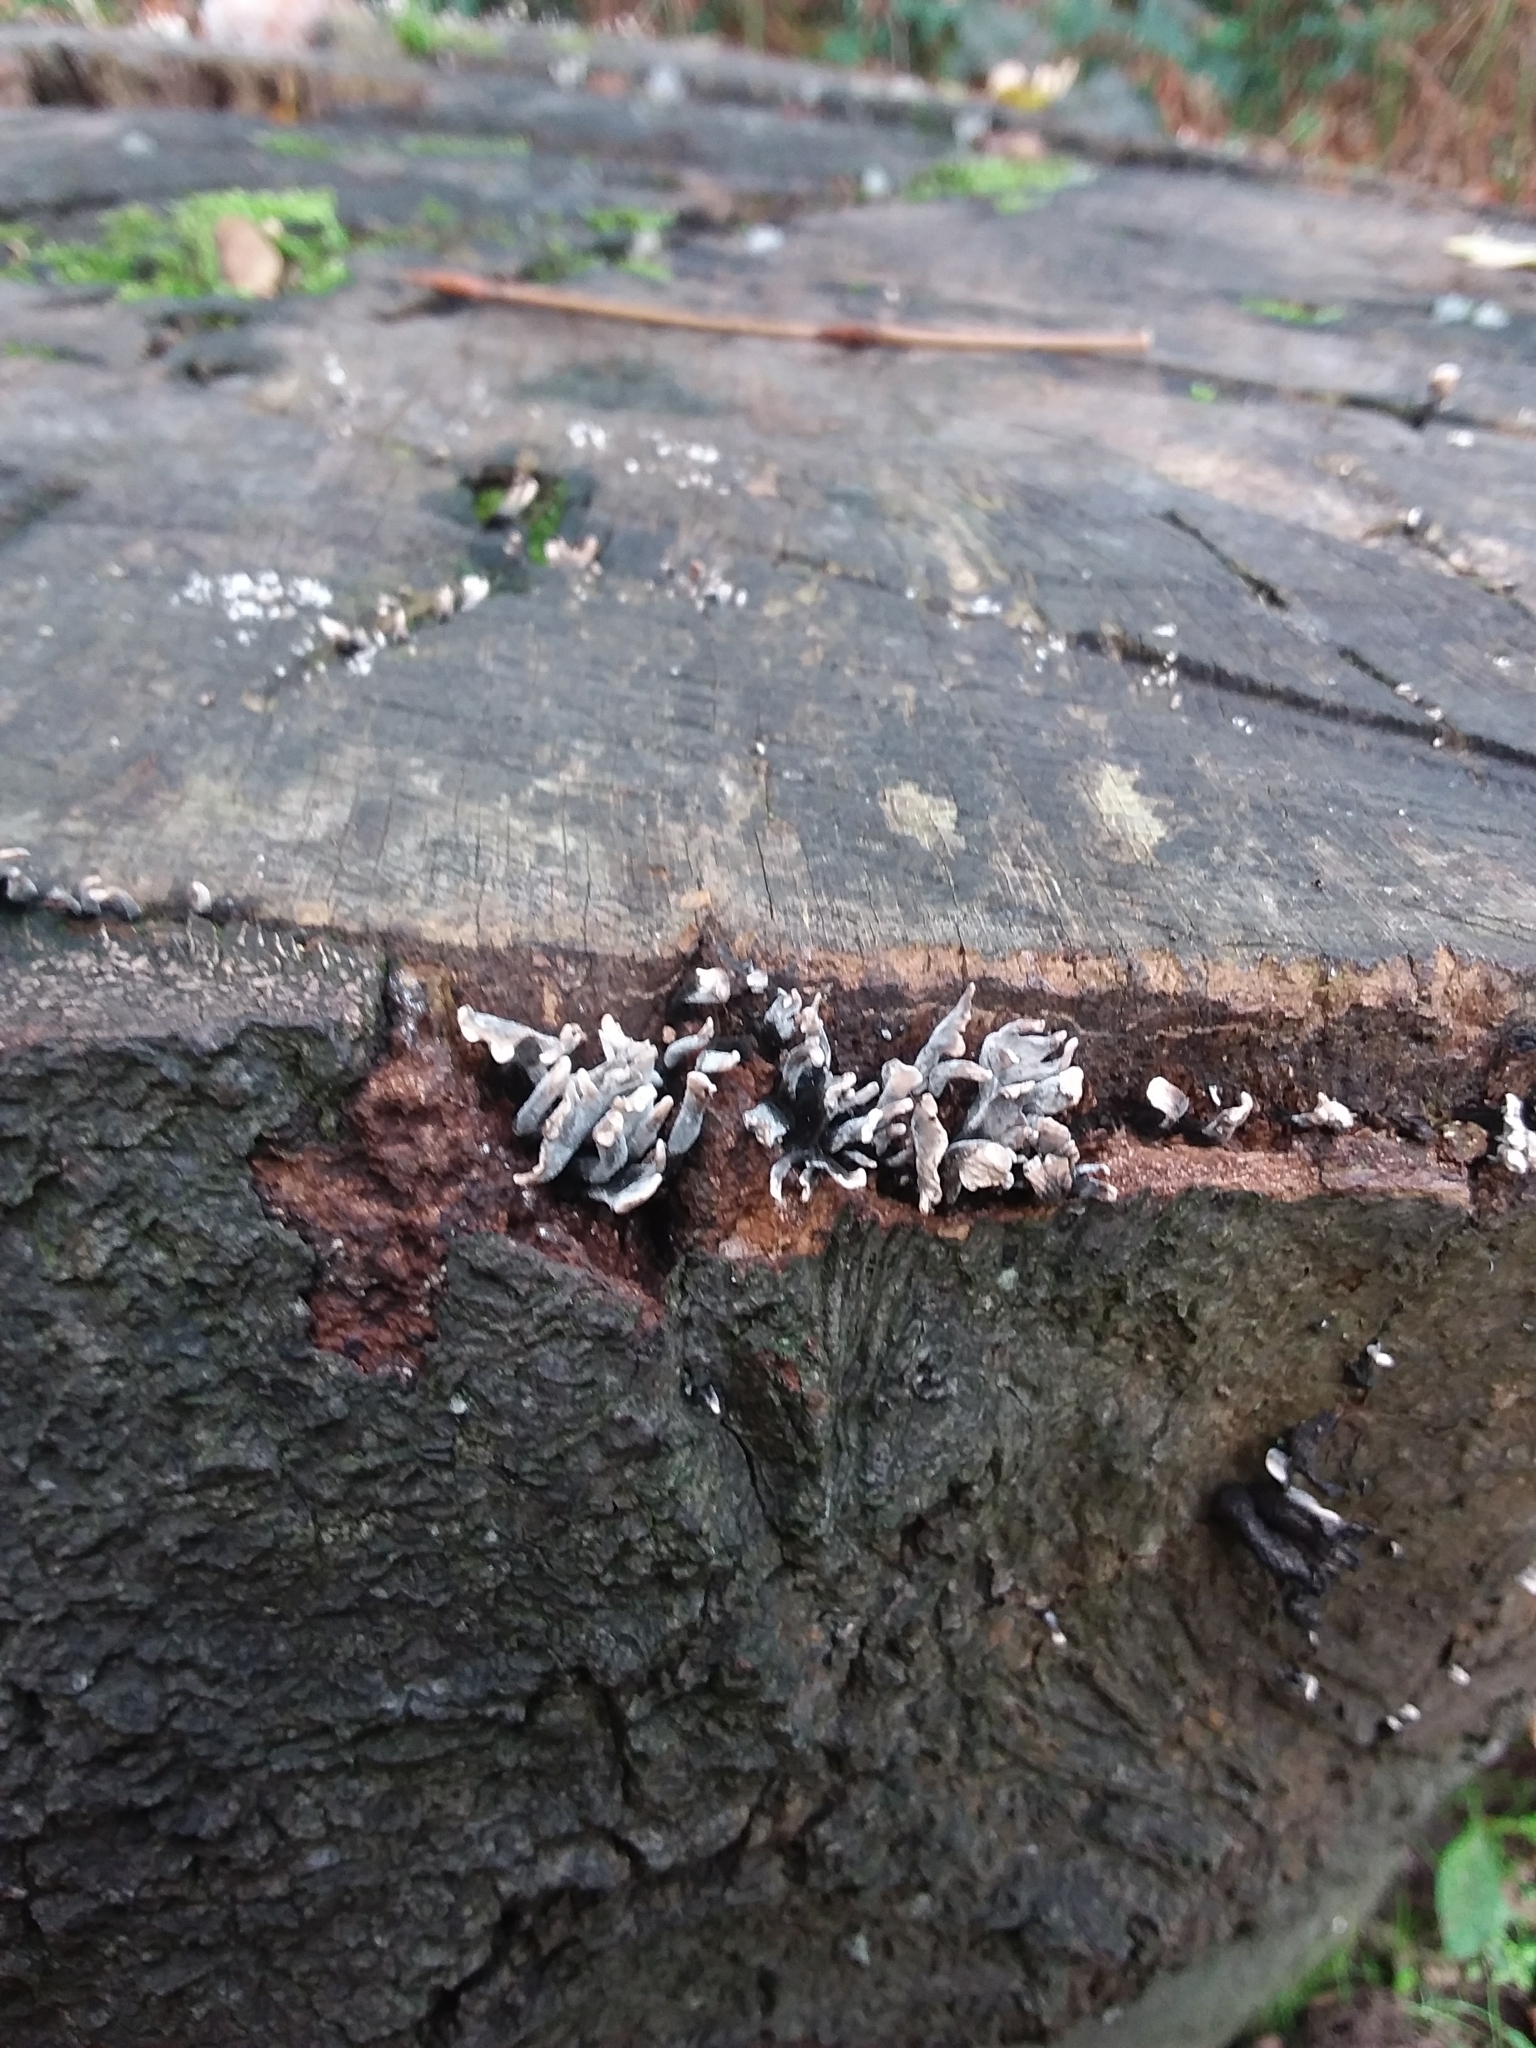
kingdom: Fungi
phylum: Ascomycota
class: Sordariomycetes
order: Xylariales
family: Xylariaceae
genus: Xylaria
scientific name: Xylaria hypoxylon
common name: Candle-snuff fungus
